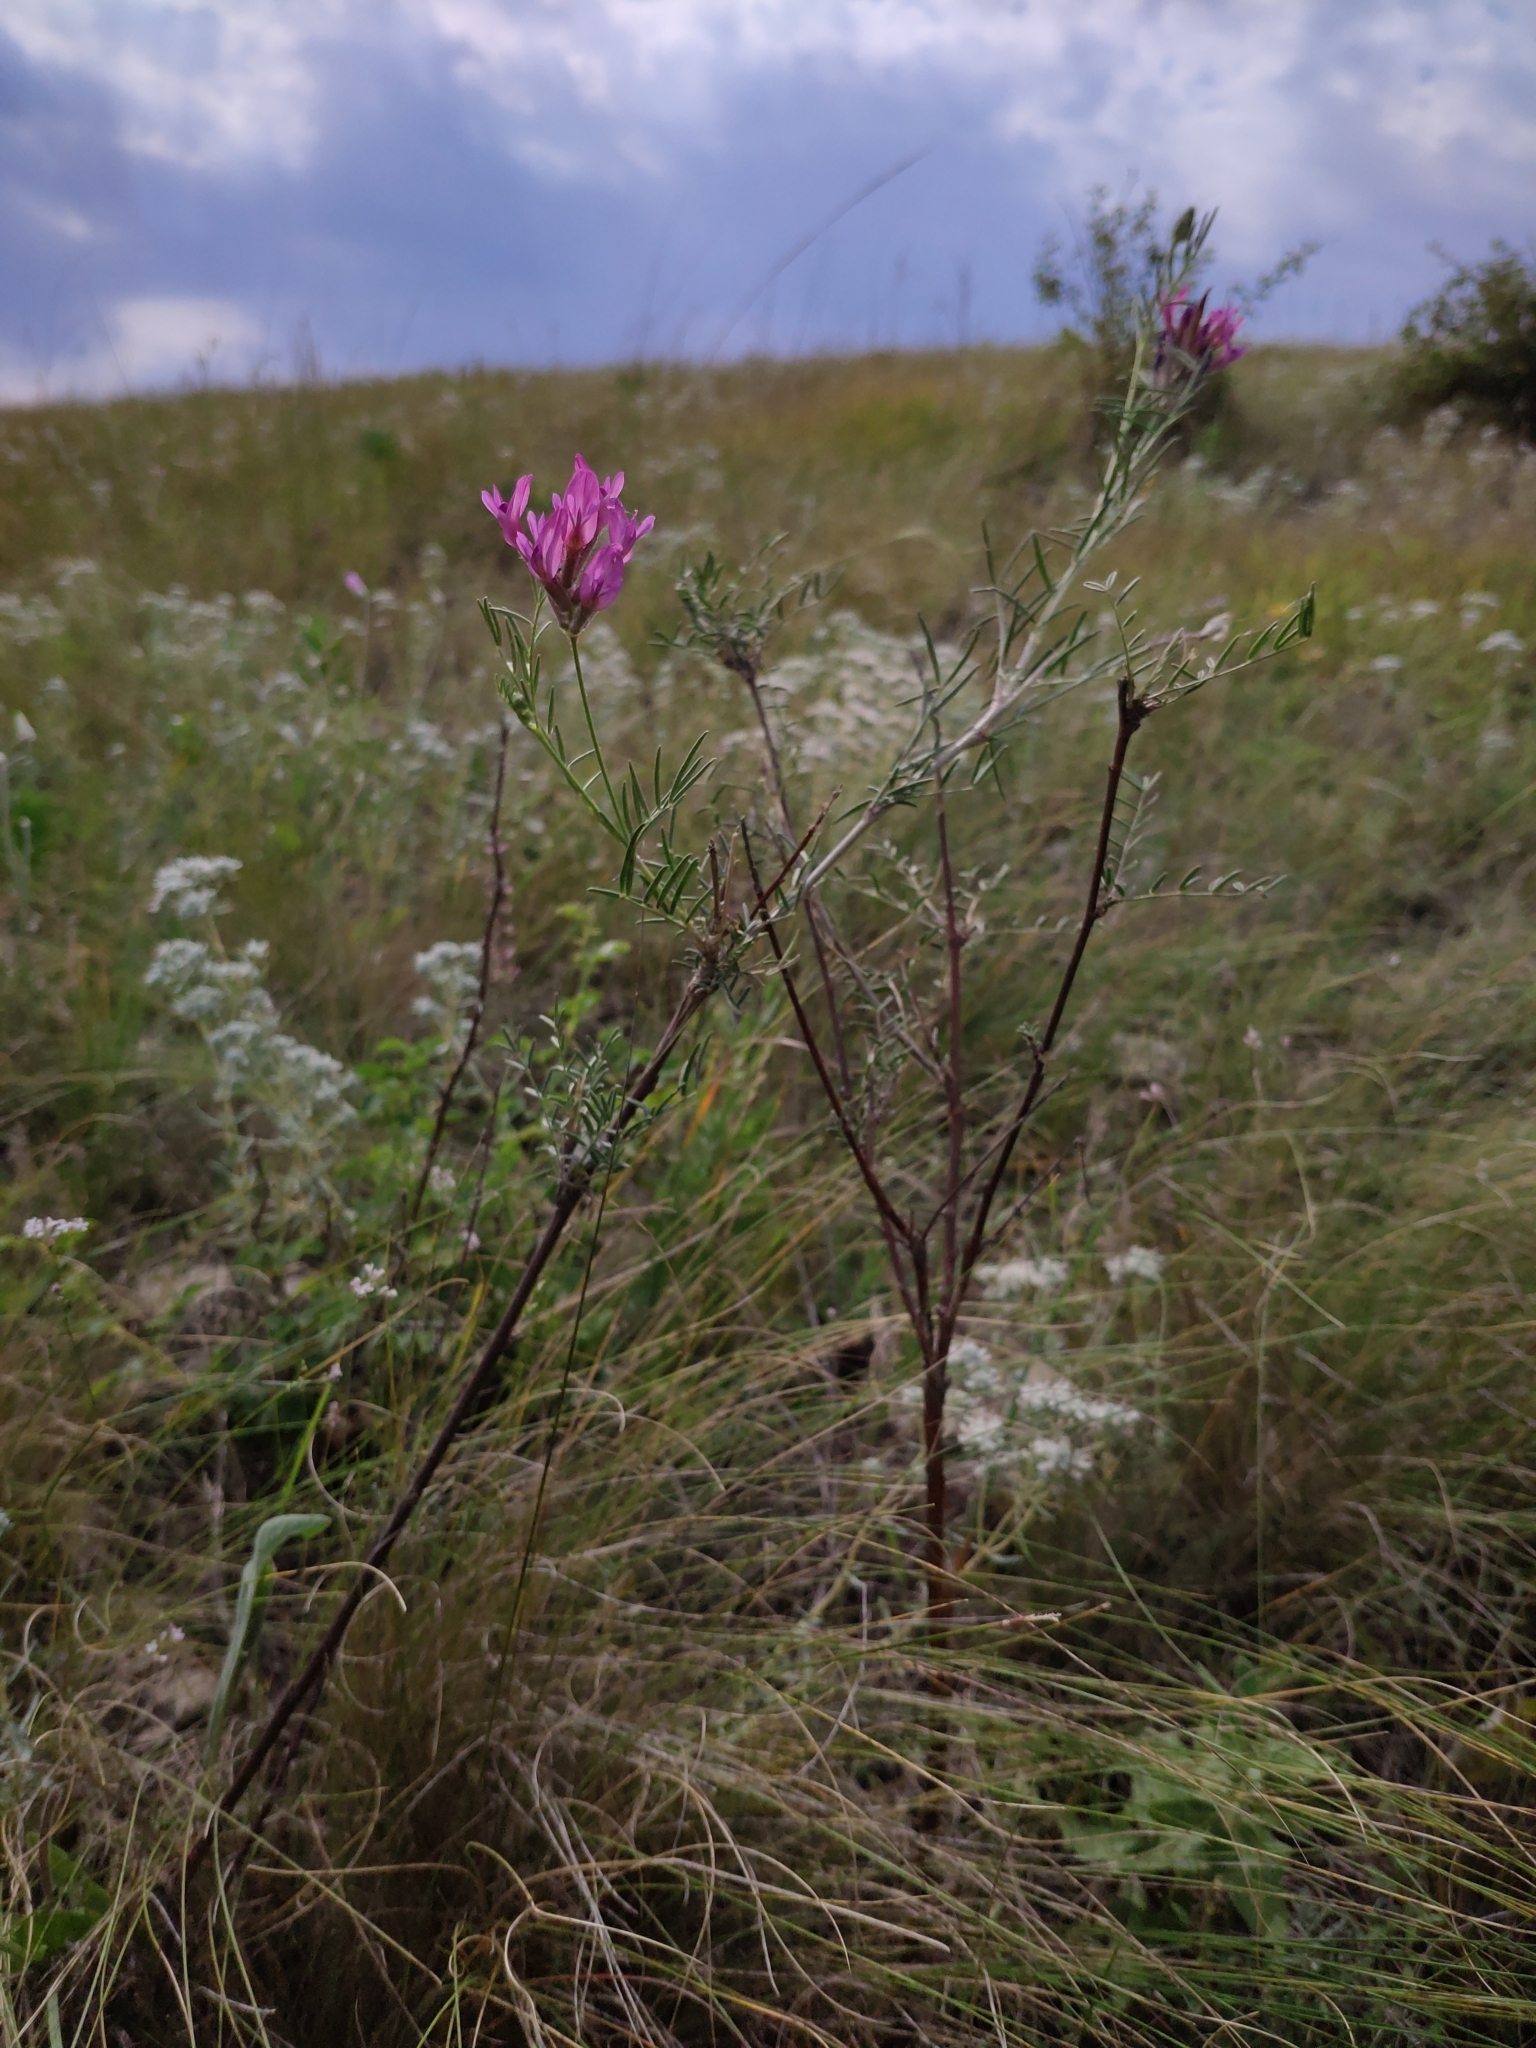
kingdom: Plantae
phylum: Tracheophyta
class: Magnoliopsida
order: Fabales
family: Fabaceae
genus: Astragalus
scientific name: Astragalus cornutus
